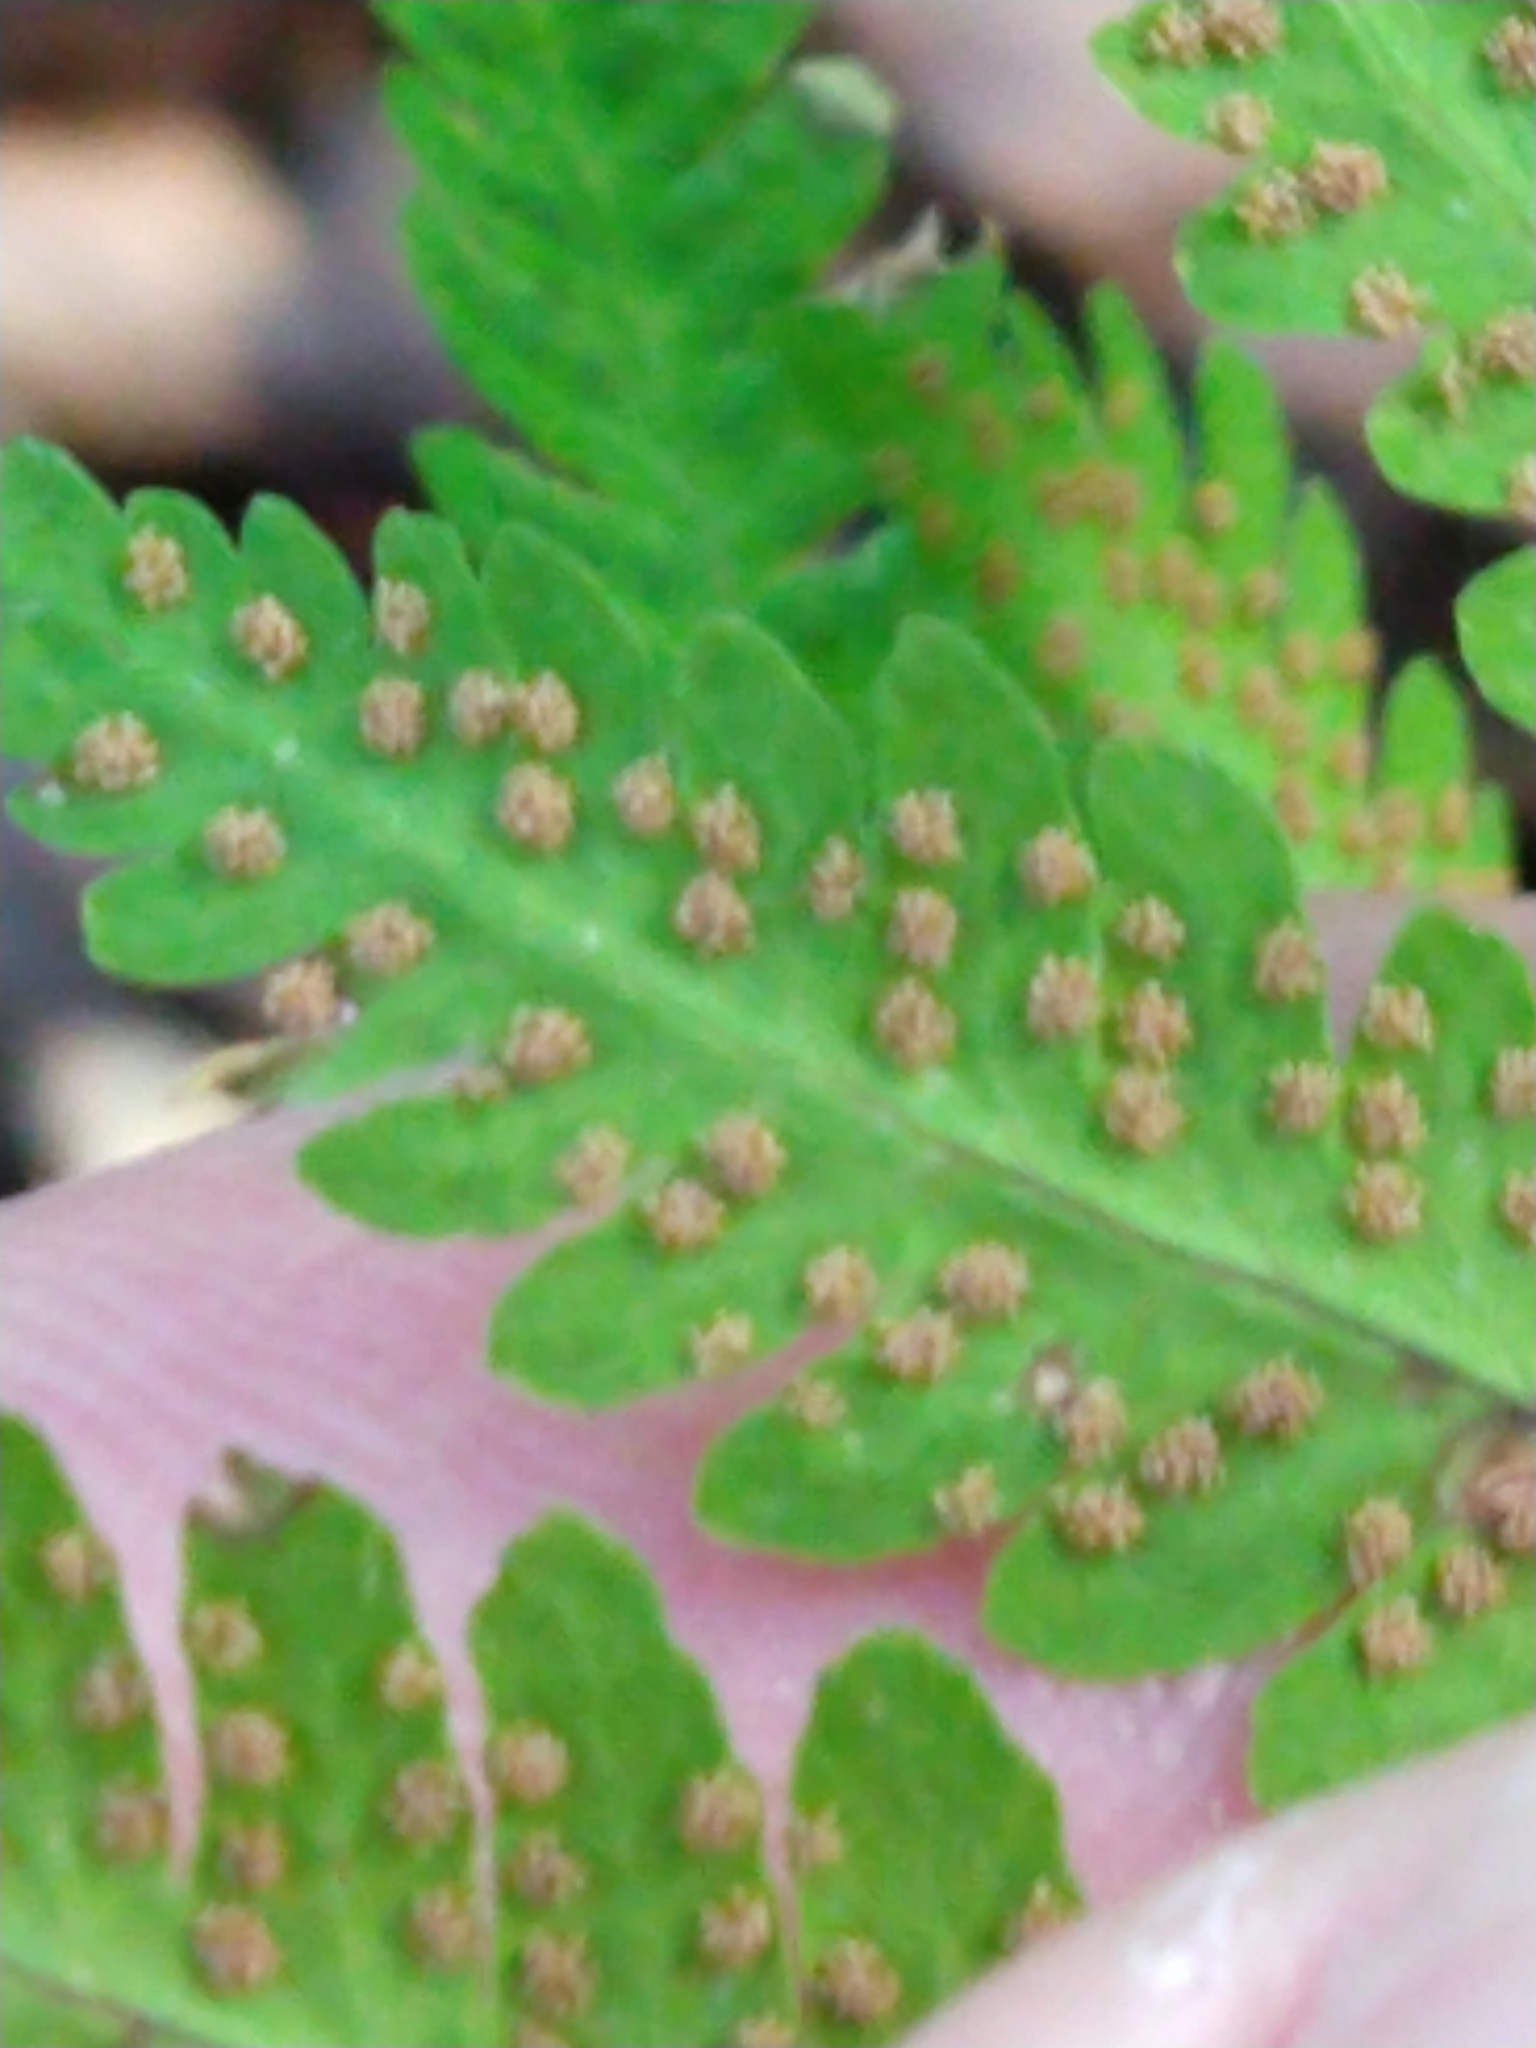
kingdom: Plantae
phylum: Tracheophyta
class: Polypodiopsida
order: Polypodiales
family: Cystopteridaceae
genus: Gymnocarpium
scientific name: Gymnocarpium dryopteris
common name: Oak fern
